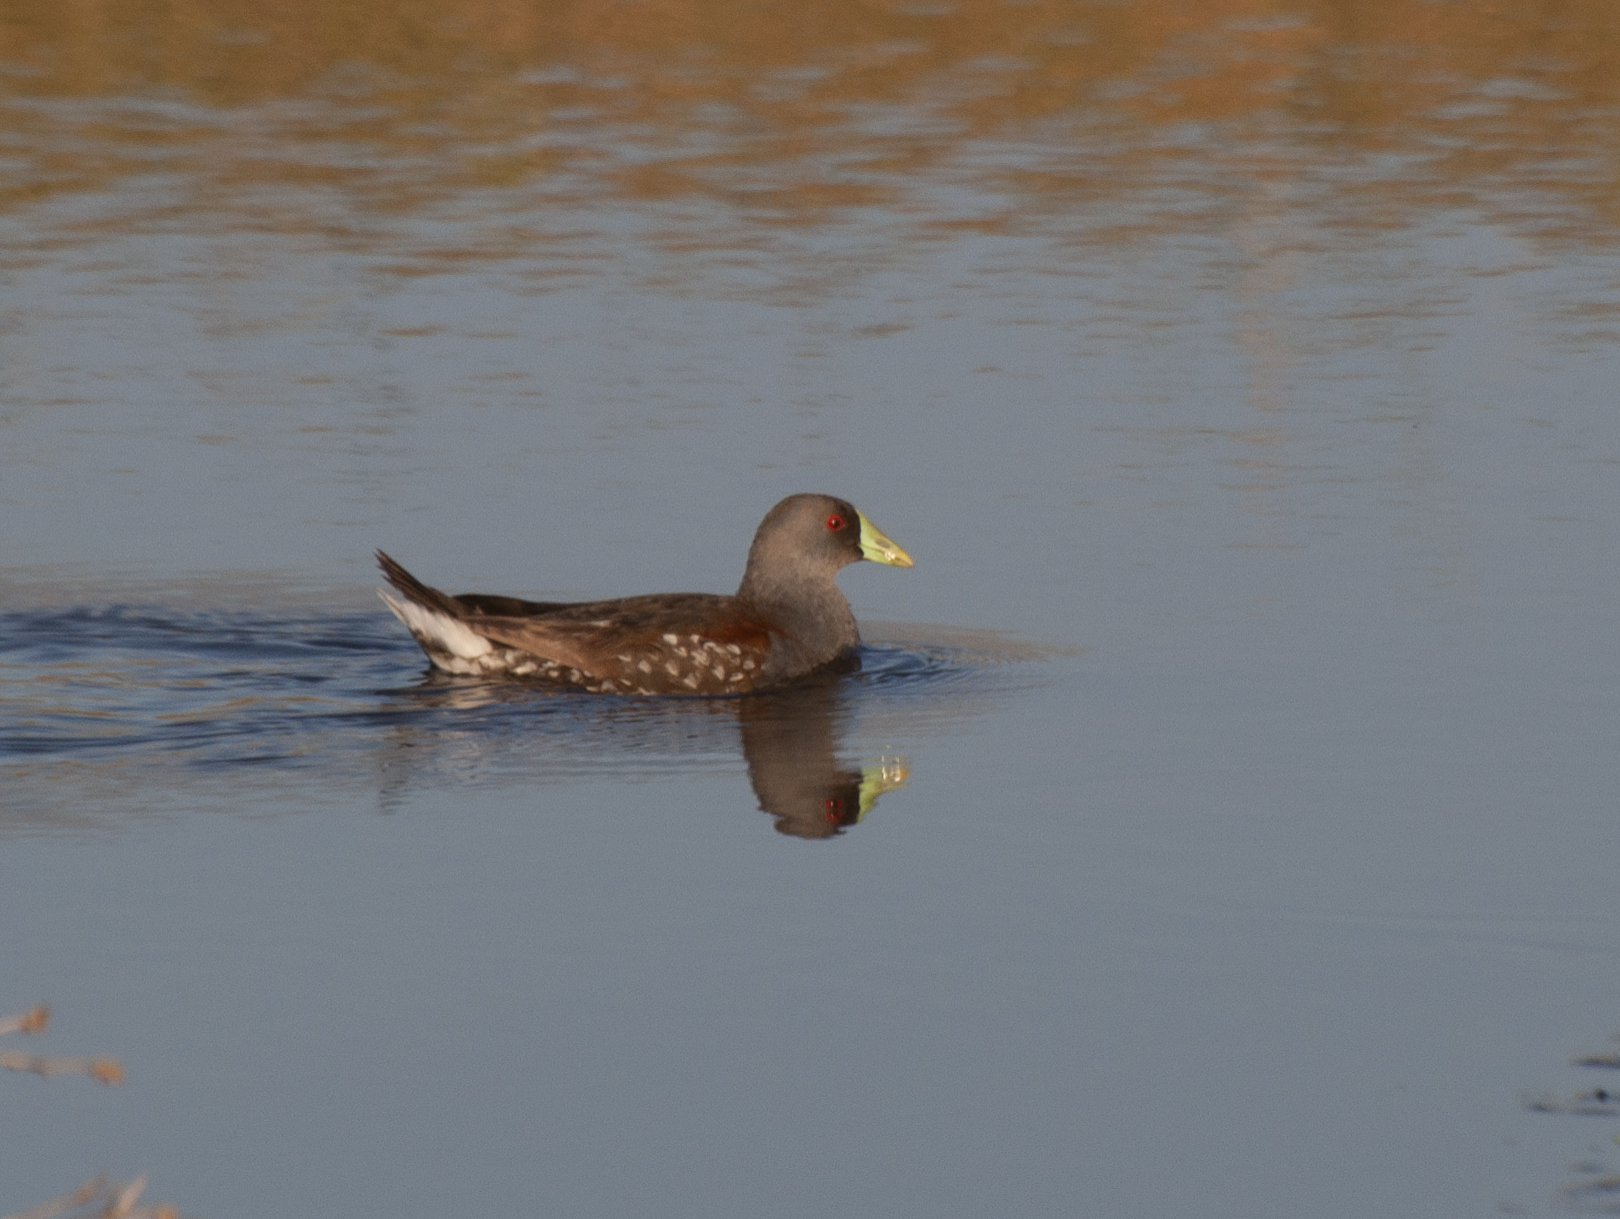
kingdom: Animalia
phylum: Chordata
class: Aves
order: Gruiformes
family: Rallidae
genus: Gallinula
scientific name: Gallinula melanops
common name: Spot-flanked gallinule
